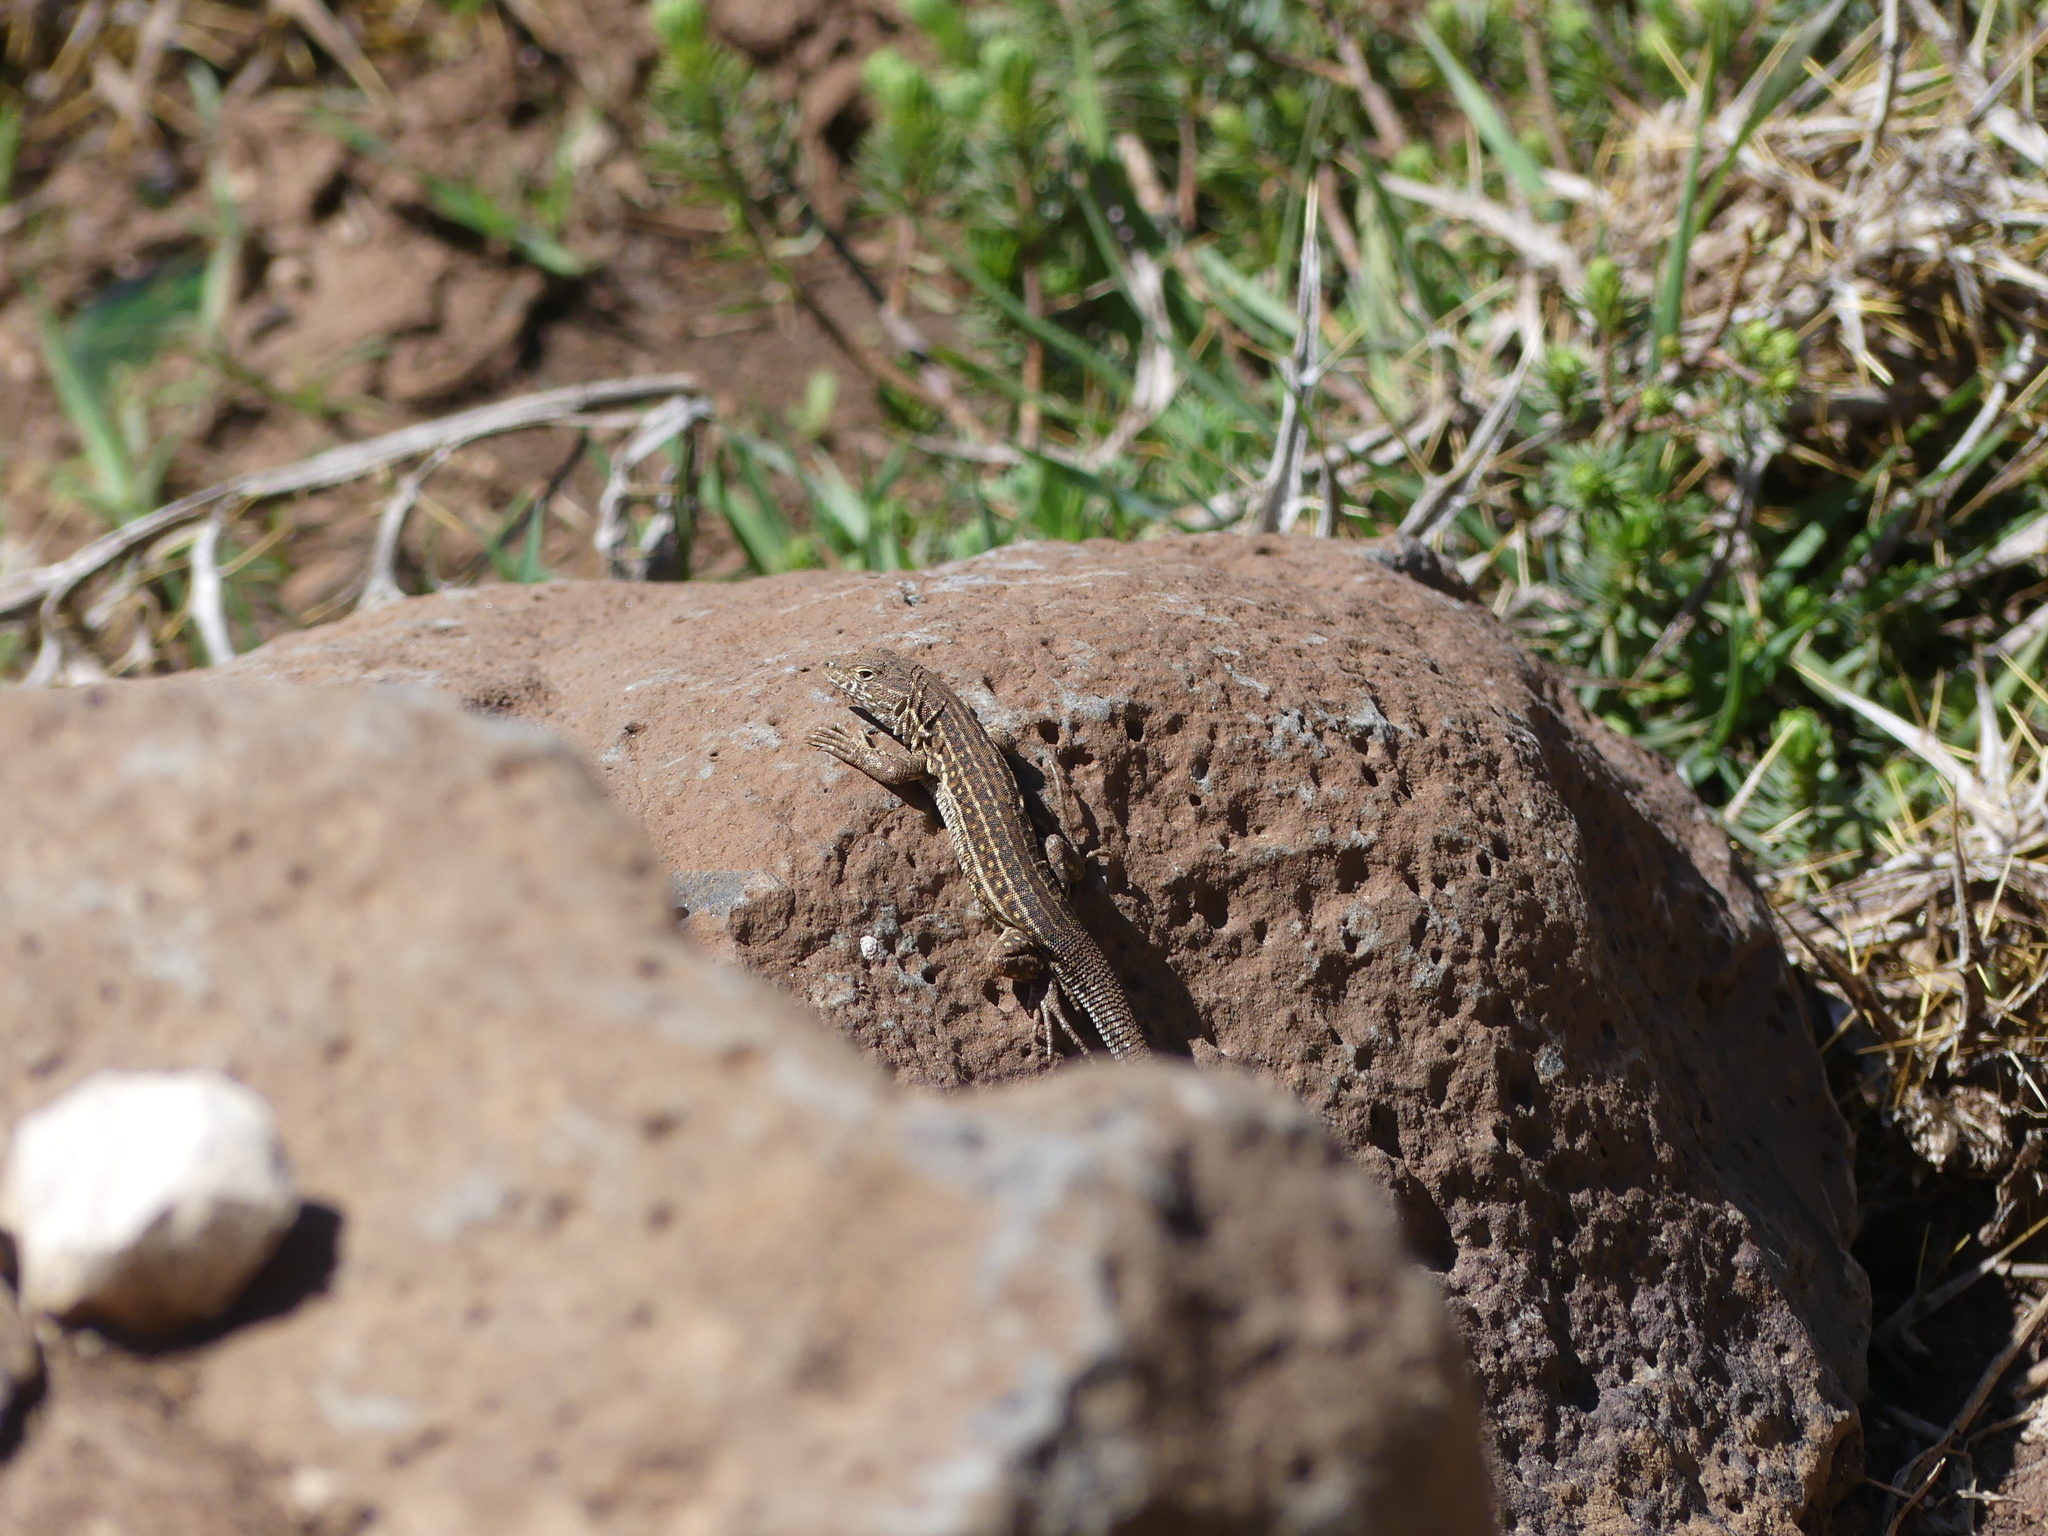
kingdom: Animalia
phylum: Chordata
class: Squamata
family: Lacertidae
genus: Acanthodactylus
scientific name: Acanthodactylus erythrurus
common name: Spiny-footed lizard
